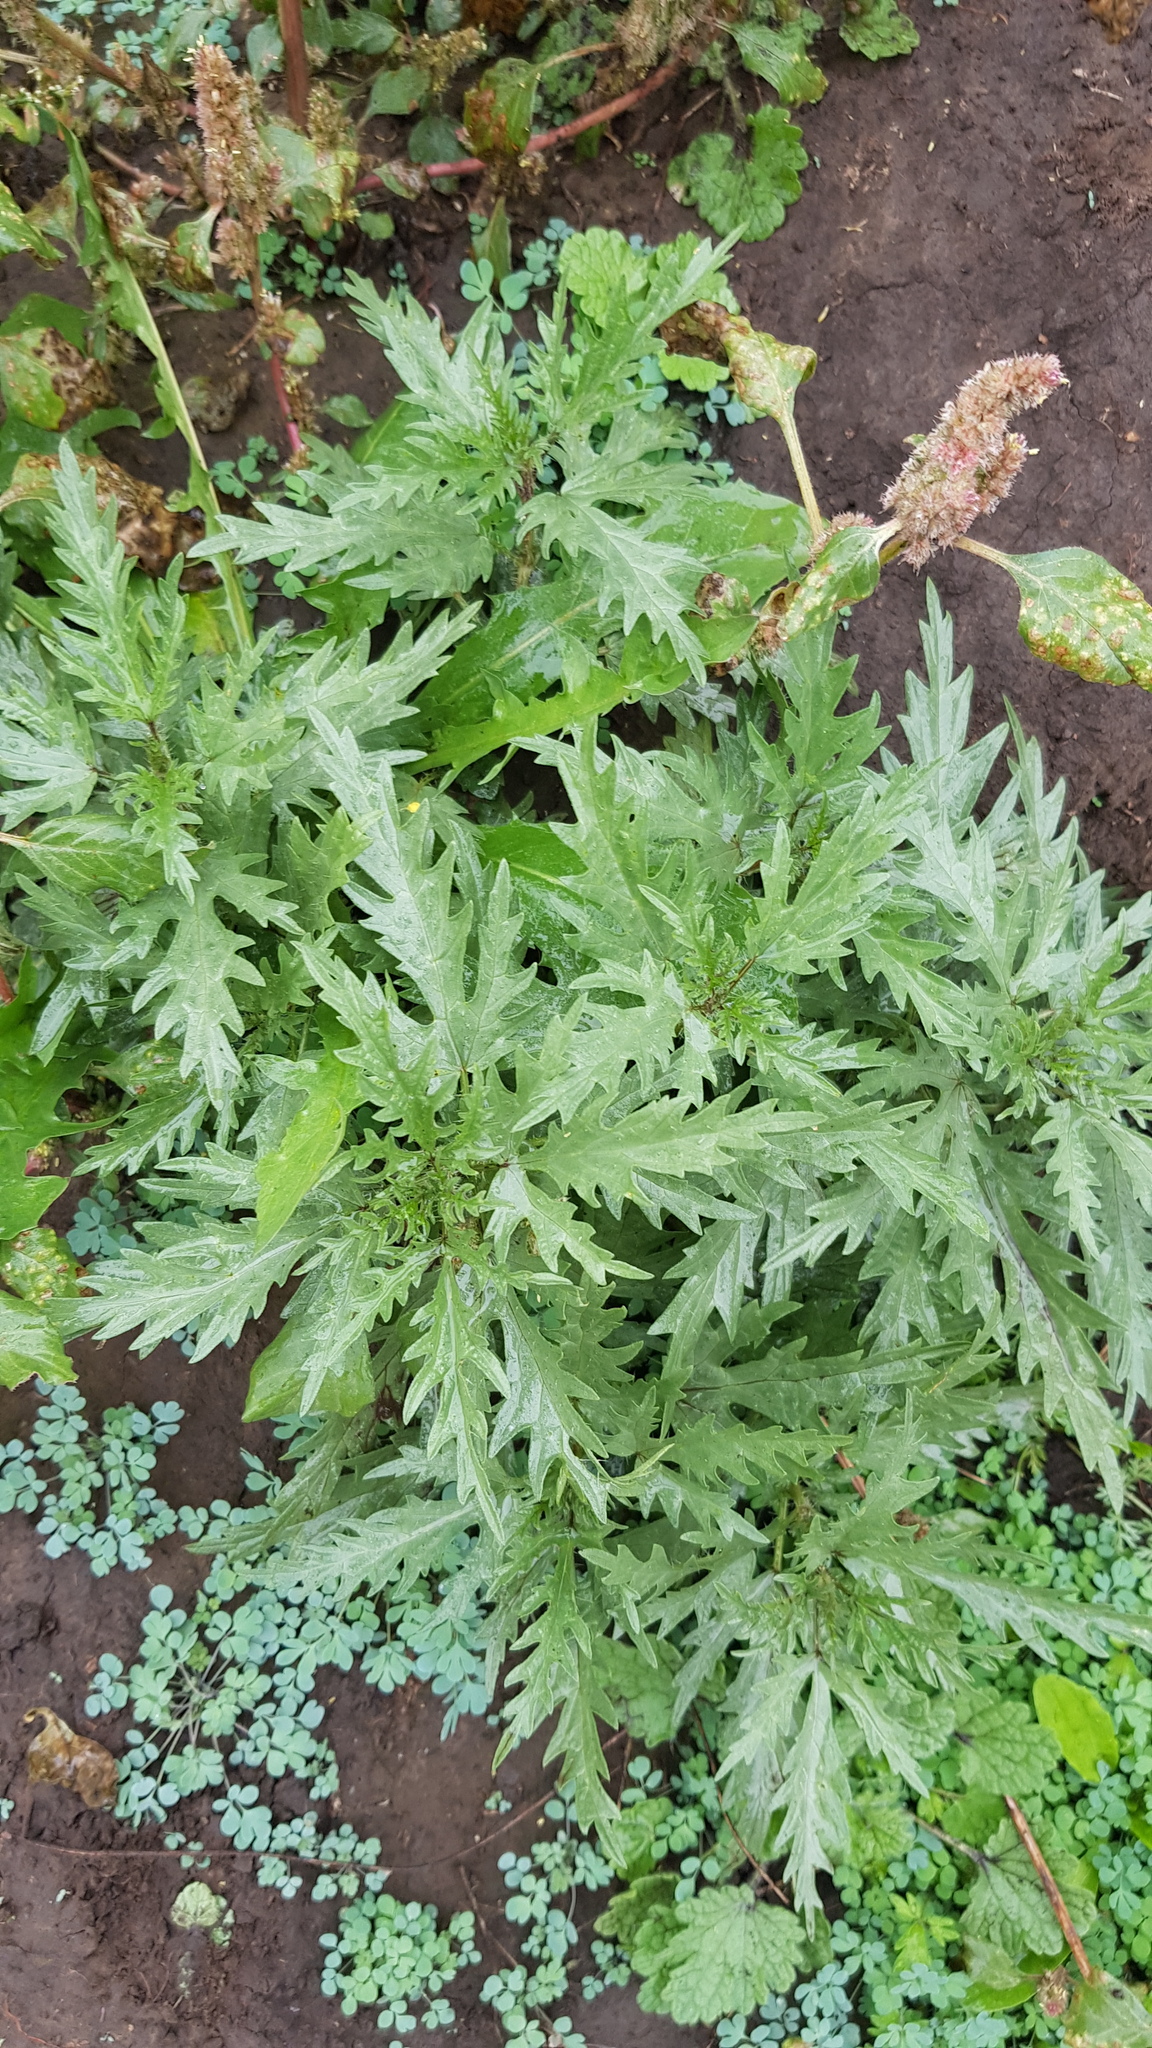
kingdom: Plantae
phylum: Tracheophyta
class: Magnoliopsida
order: Rosales
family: Urticaceae
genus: Urtica
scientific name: Urtica cannabina
